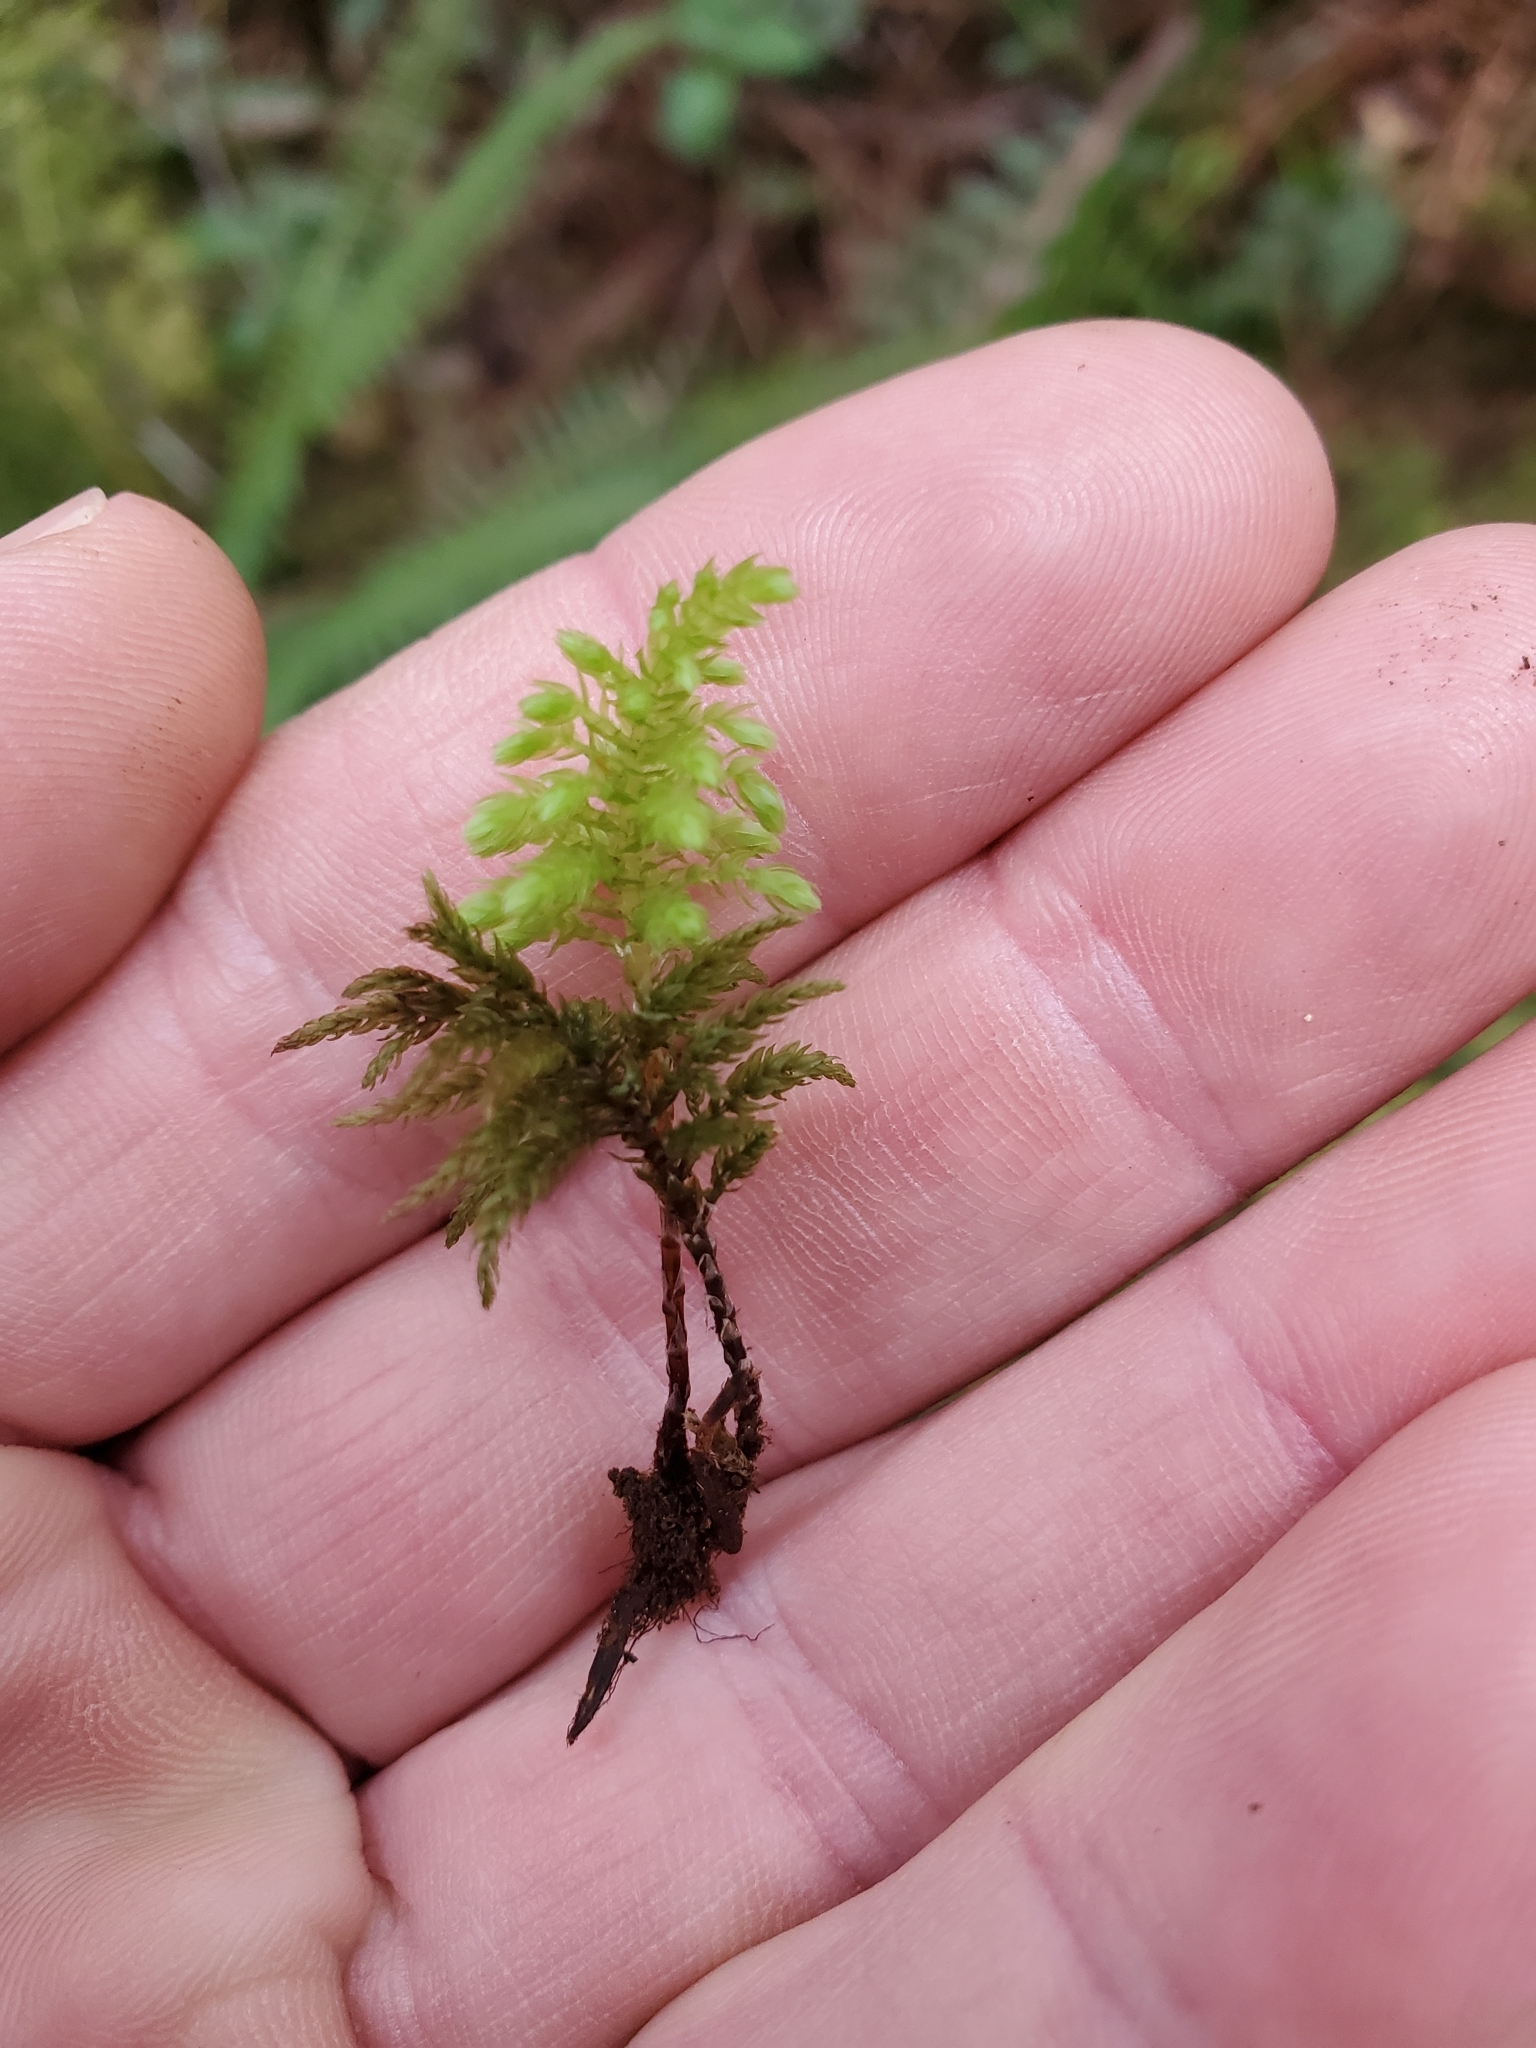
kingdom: Plantae
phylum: Bryophyta
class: Bryopsida
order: Bryales
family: Mniaceae
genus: Leucolepis
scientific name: Leucolepis acanthoneura
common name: Leucolepis umbrella moss
